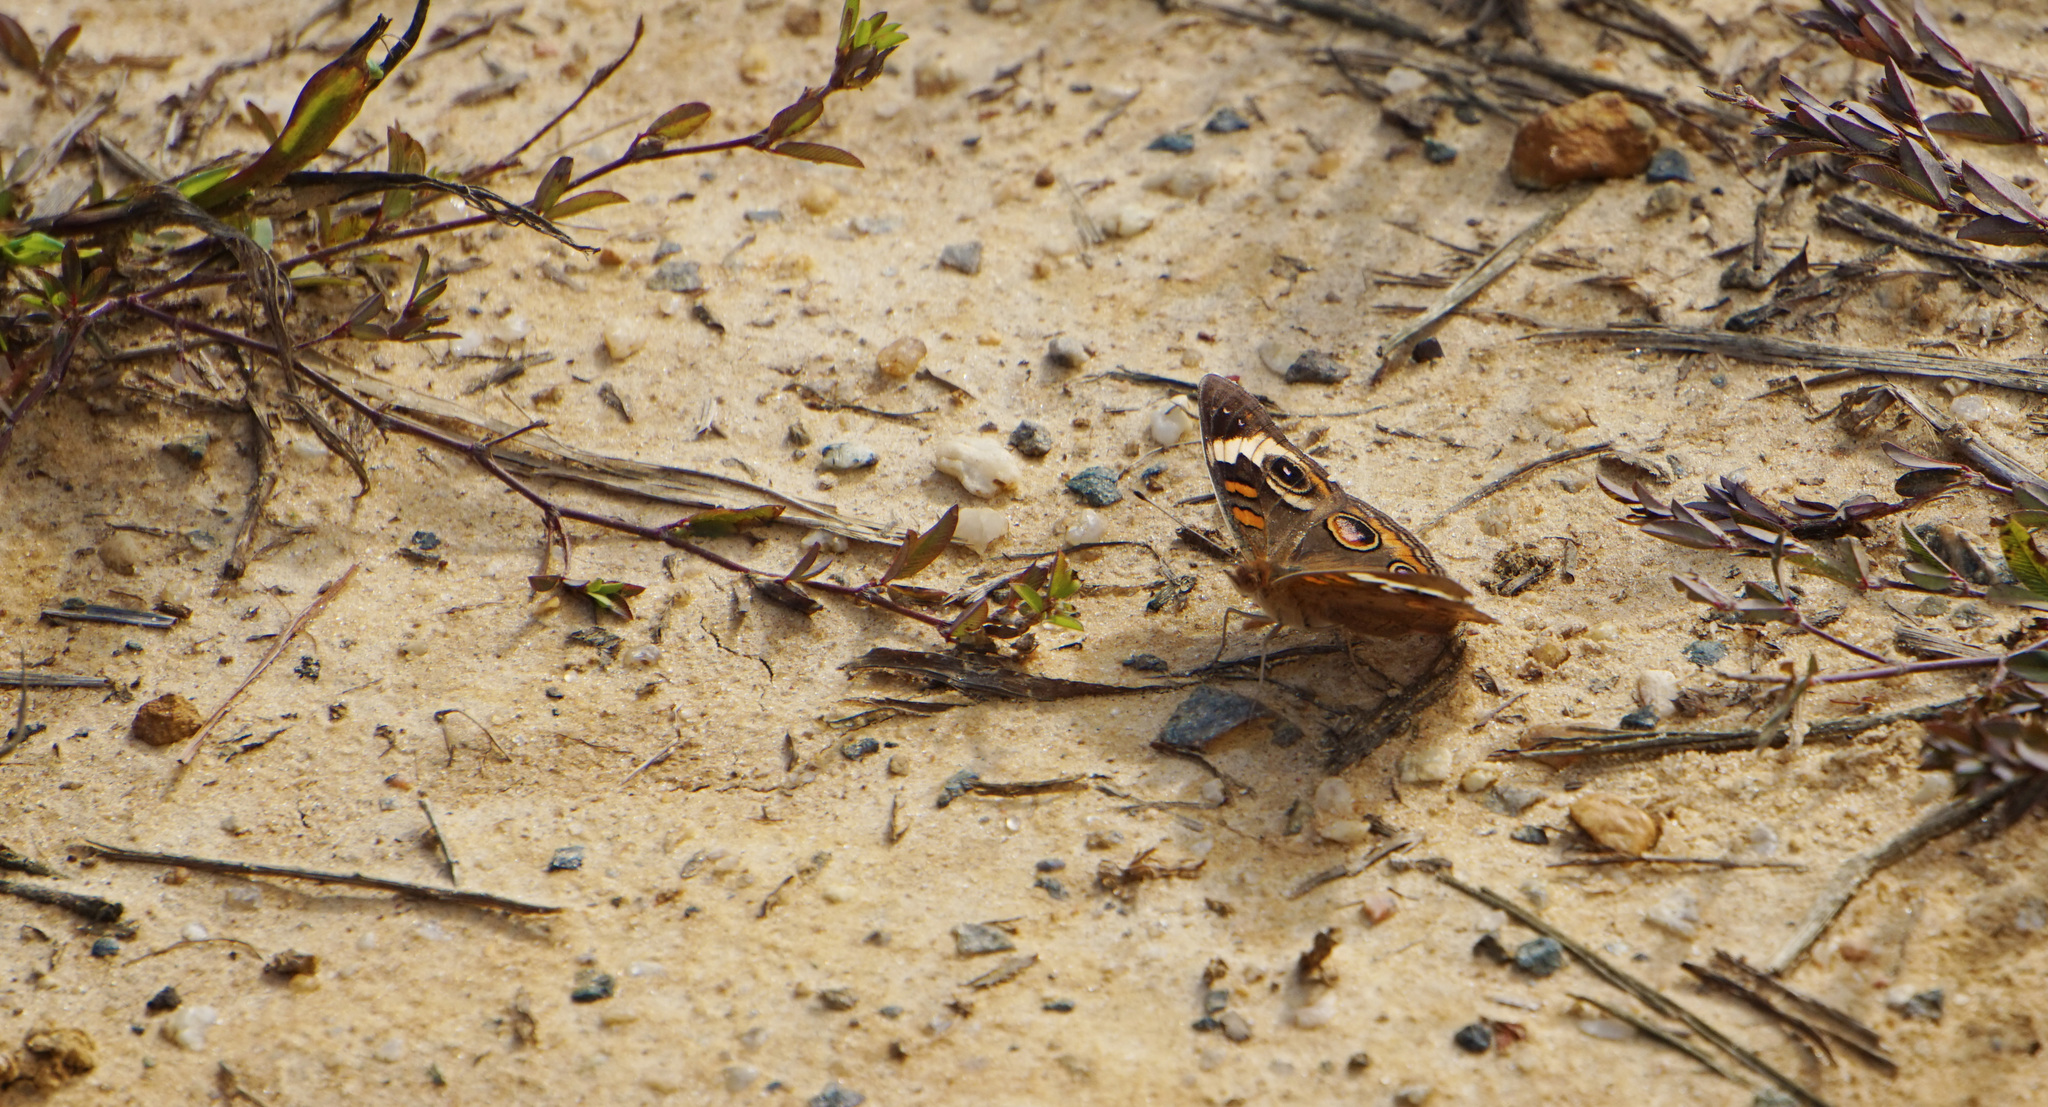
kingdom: Animalia
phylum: Arthropoda
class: Insecta
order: Lepidoptera
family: Nymphalidae
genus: Junonia
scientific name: Junonia coenia
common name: Common buckeye
